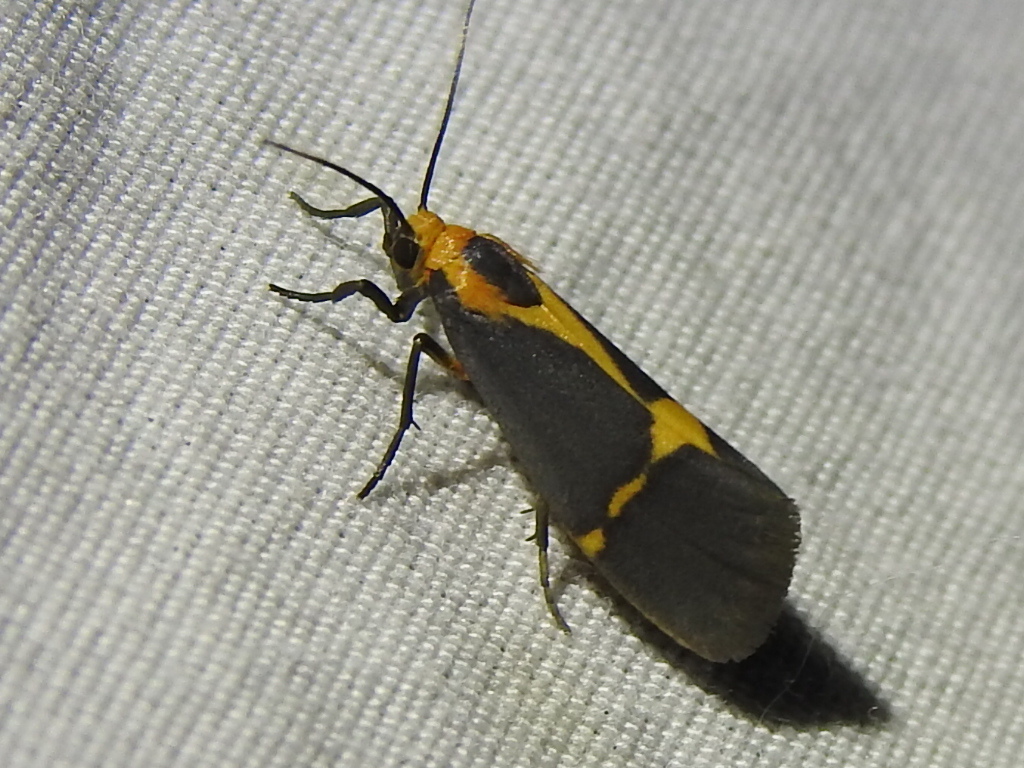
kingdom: Animalia
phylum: Arthropoda
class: Insecta
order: Lepidoptera
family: Erebidae
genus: Cisthene
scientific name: Cisthene tenuifascia
